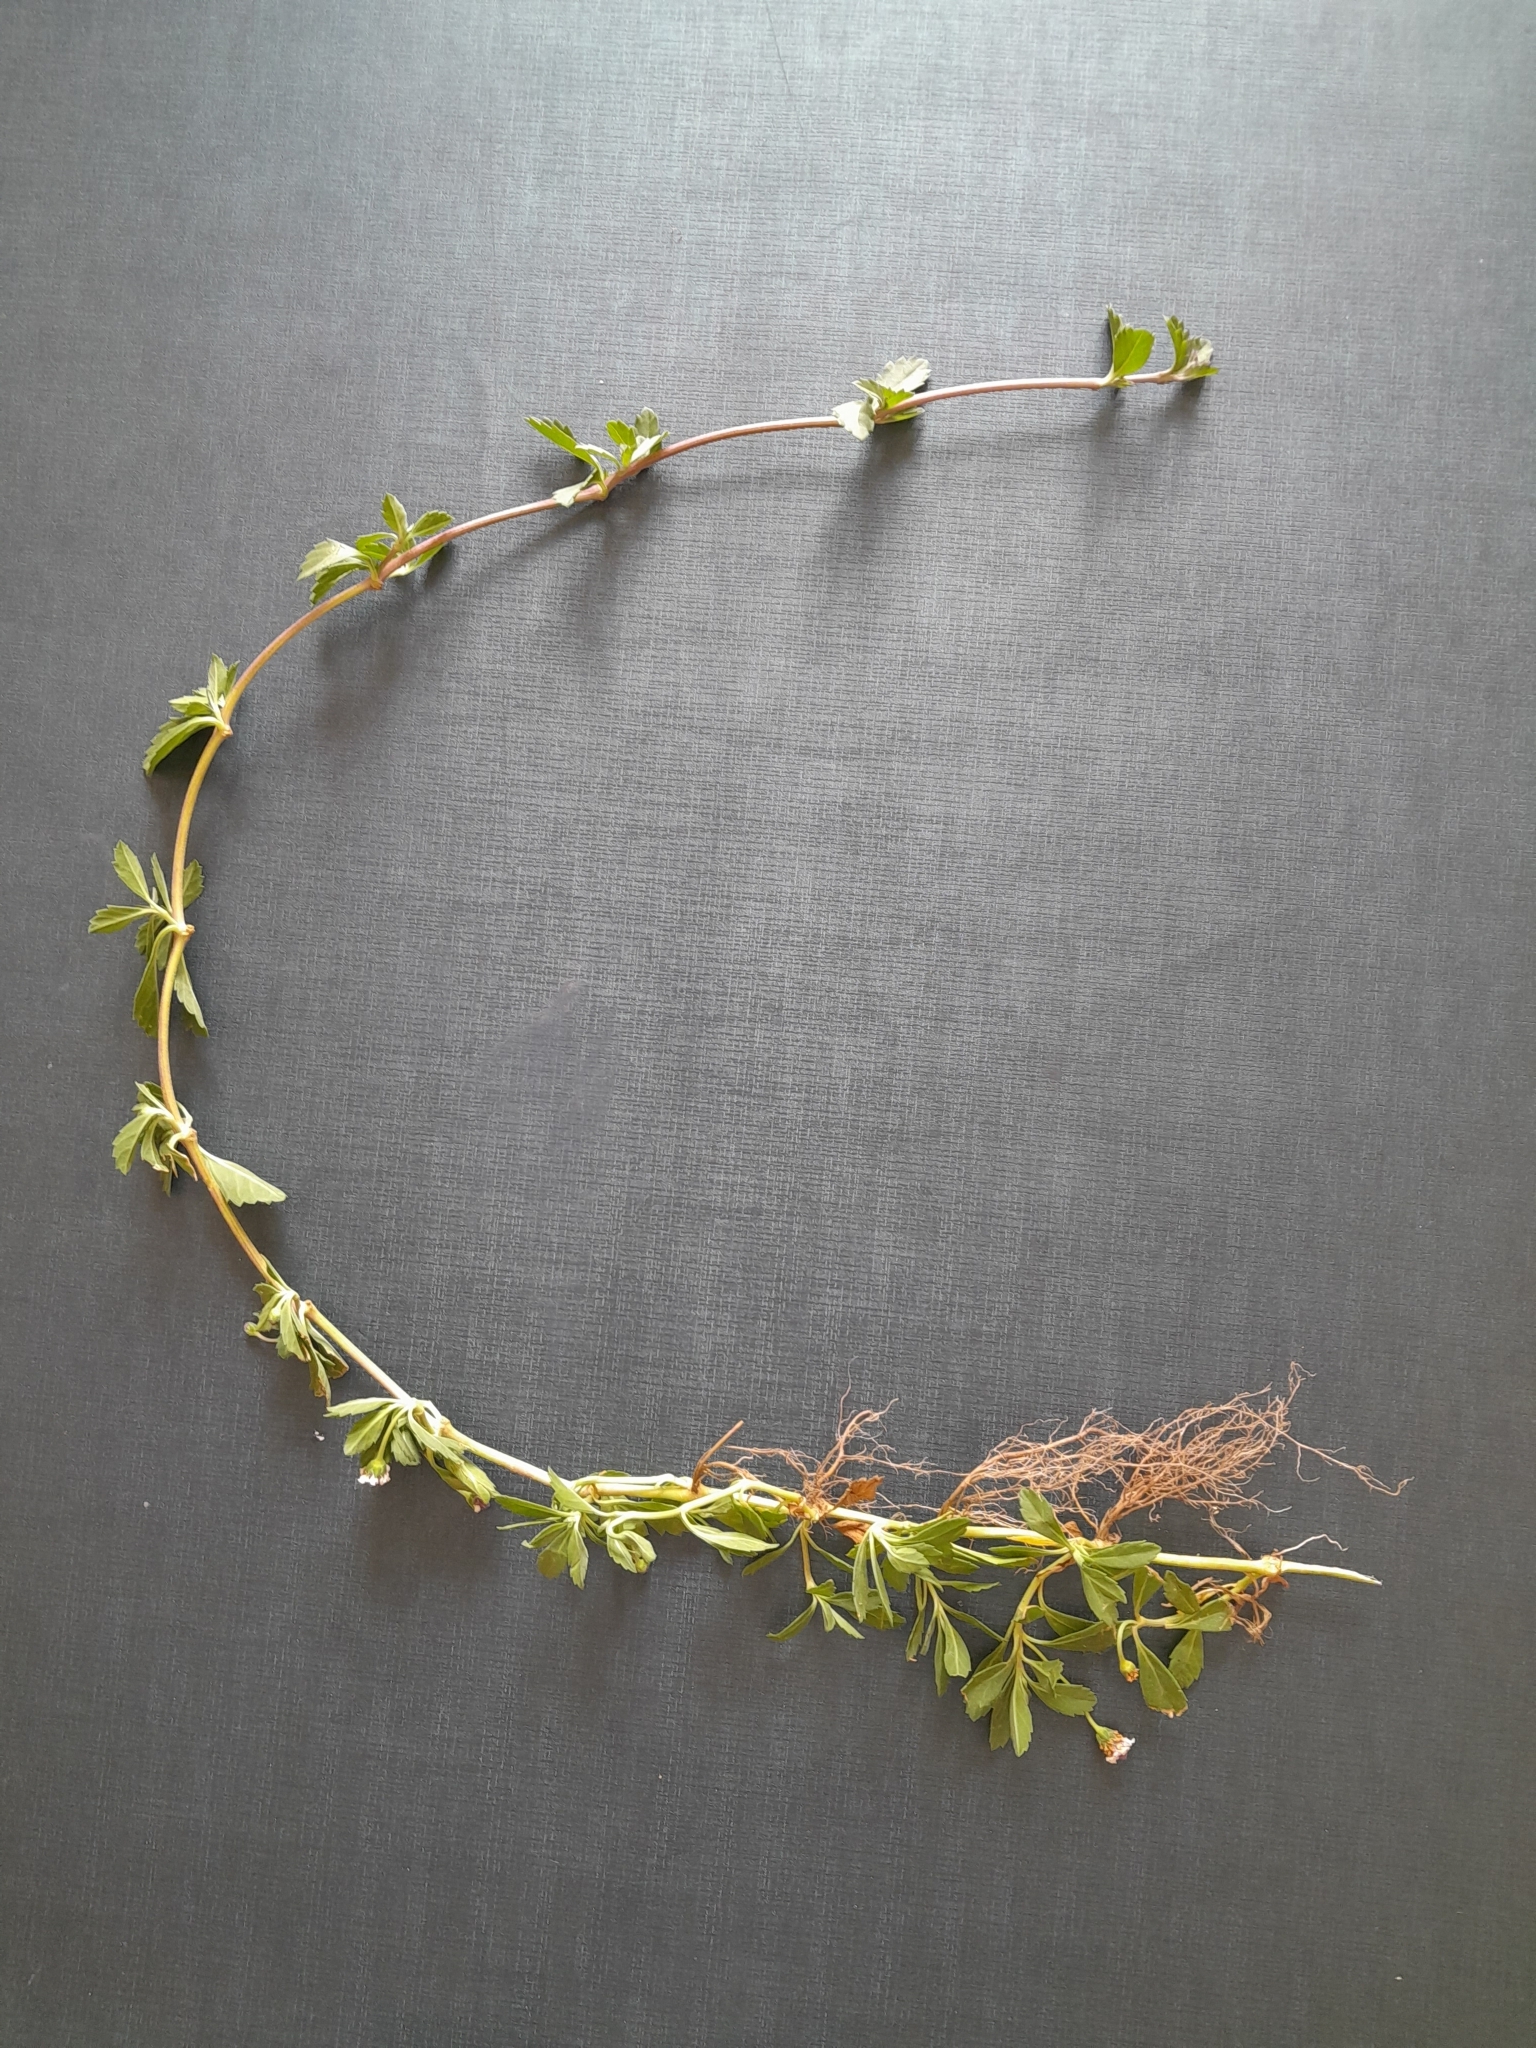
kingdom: Plantae
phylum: Tracheophyta
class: Magnoliopsida
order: Lamiales
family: Verbenaceae
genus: Phyla
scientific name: Phyla nodiflora
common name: Frogfruit
